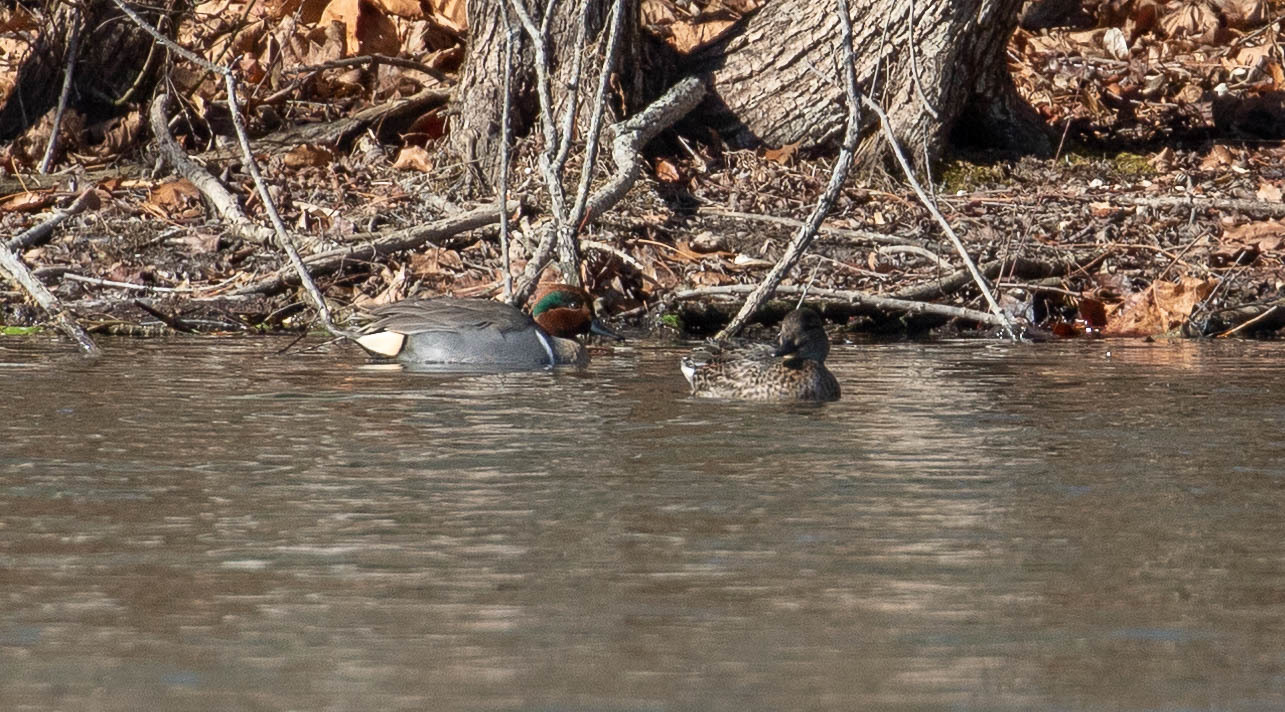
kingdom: Animalia
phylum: Chordata
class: Aves
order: Anseriformes
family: Anatidae
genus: Anas
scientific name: Anas crecca
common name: Eurasian teal
